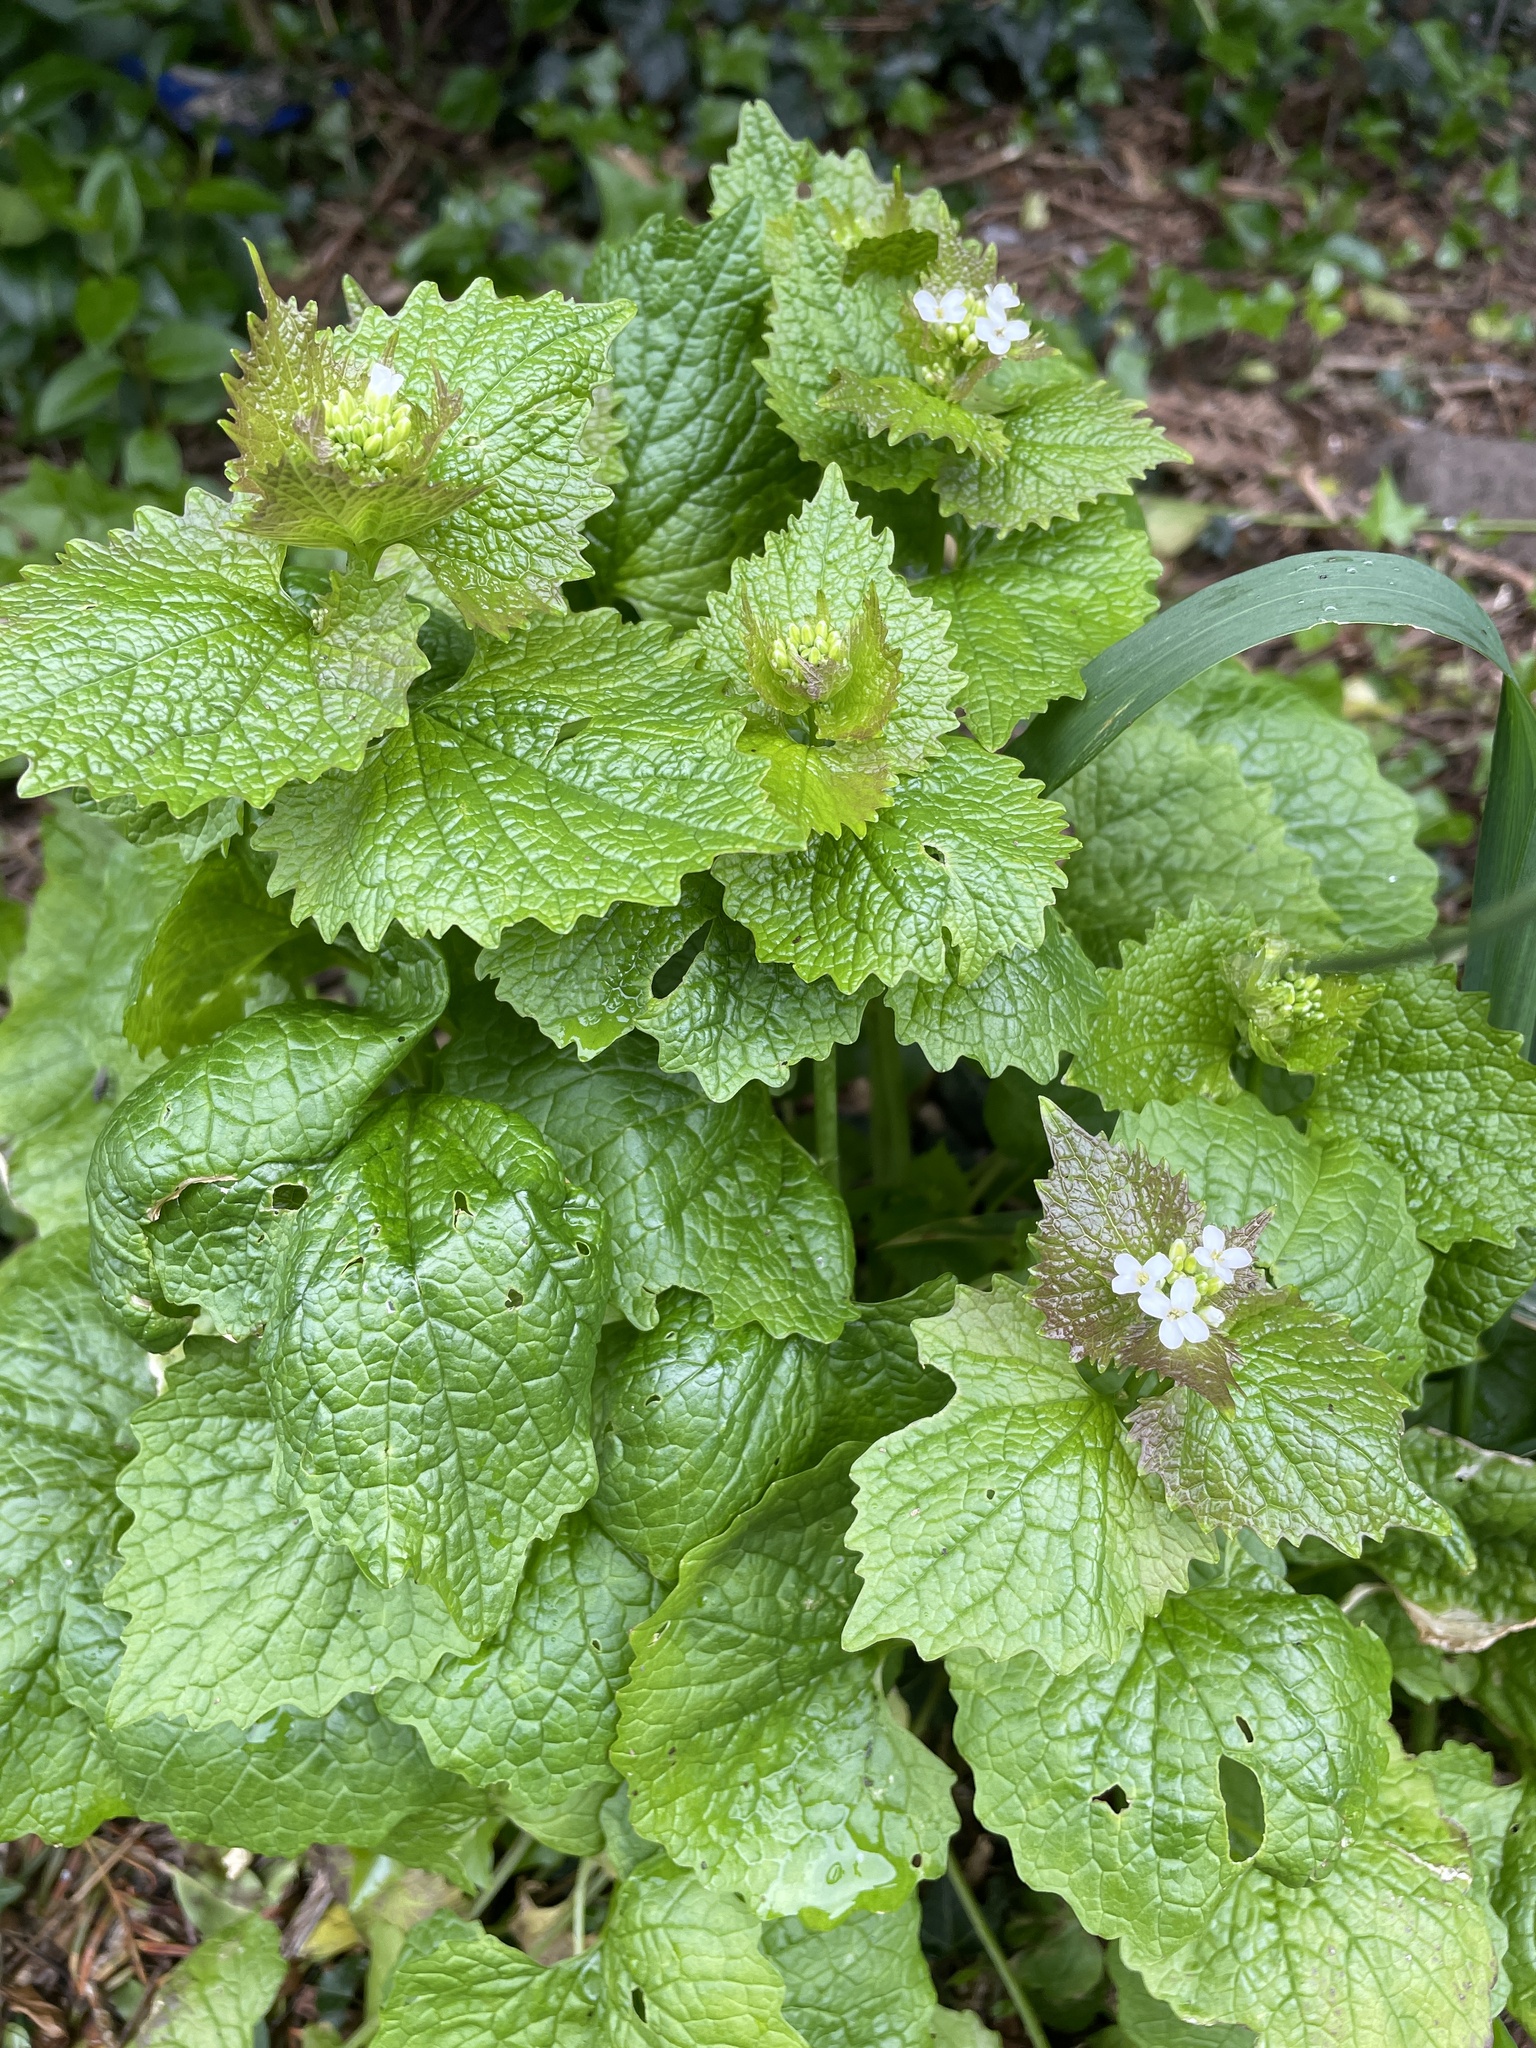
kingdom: Plantae
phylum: Tracheophyta
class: Magnoliopsida
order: Brassicales
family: Brassicaceae
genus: Alliaria
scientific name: Alliaria petiolata
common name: Garlic mustard
